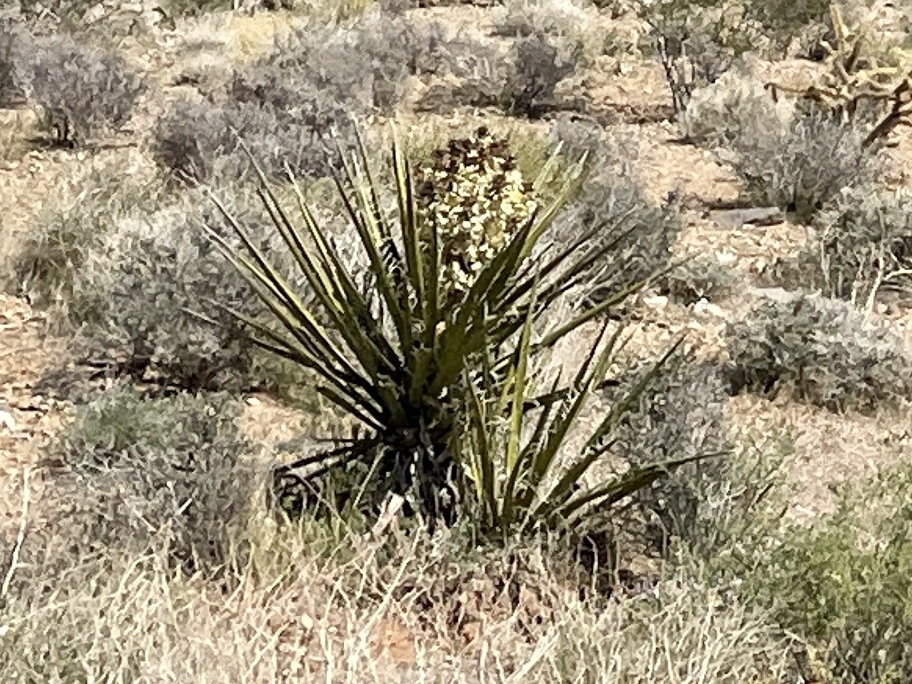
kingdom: Plantae
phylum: Tracheophyta
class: Liliopsida
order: Asparagales
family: Asparagaceae
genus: Yucca
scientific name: Yucca schidigera
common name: Mojave yucca
